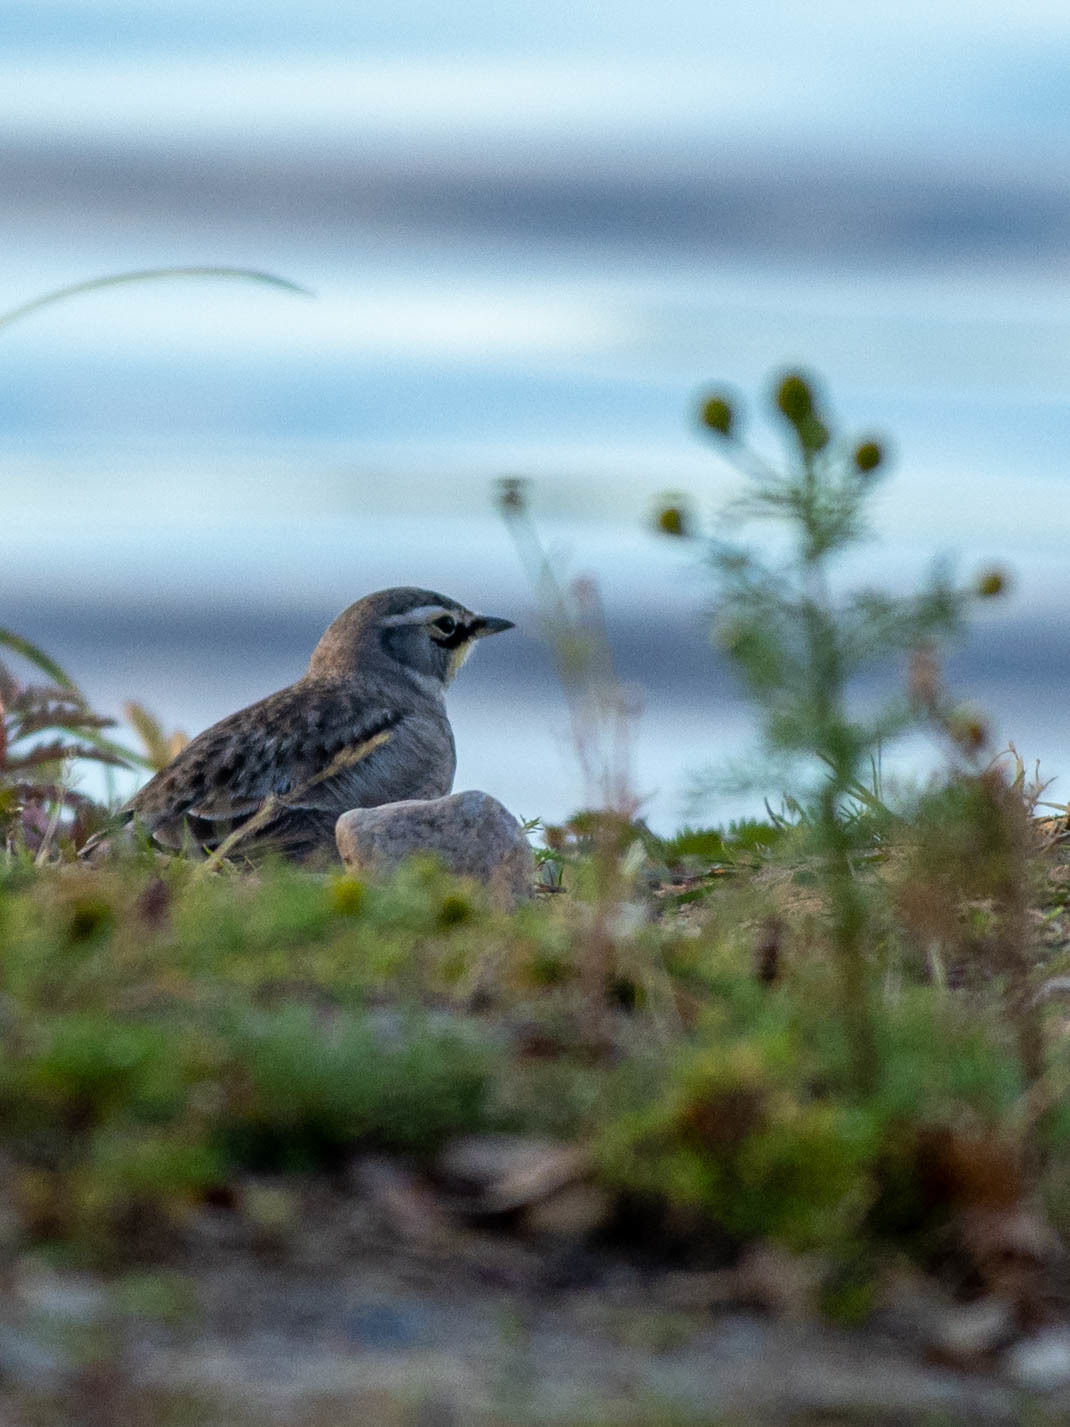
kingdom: Animalia
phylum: Chordata
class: Aves
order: Passeriformes
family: Alaudidae
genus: Eremophila
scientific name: Eremophila alpestris
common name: Horned lark
